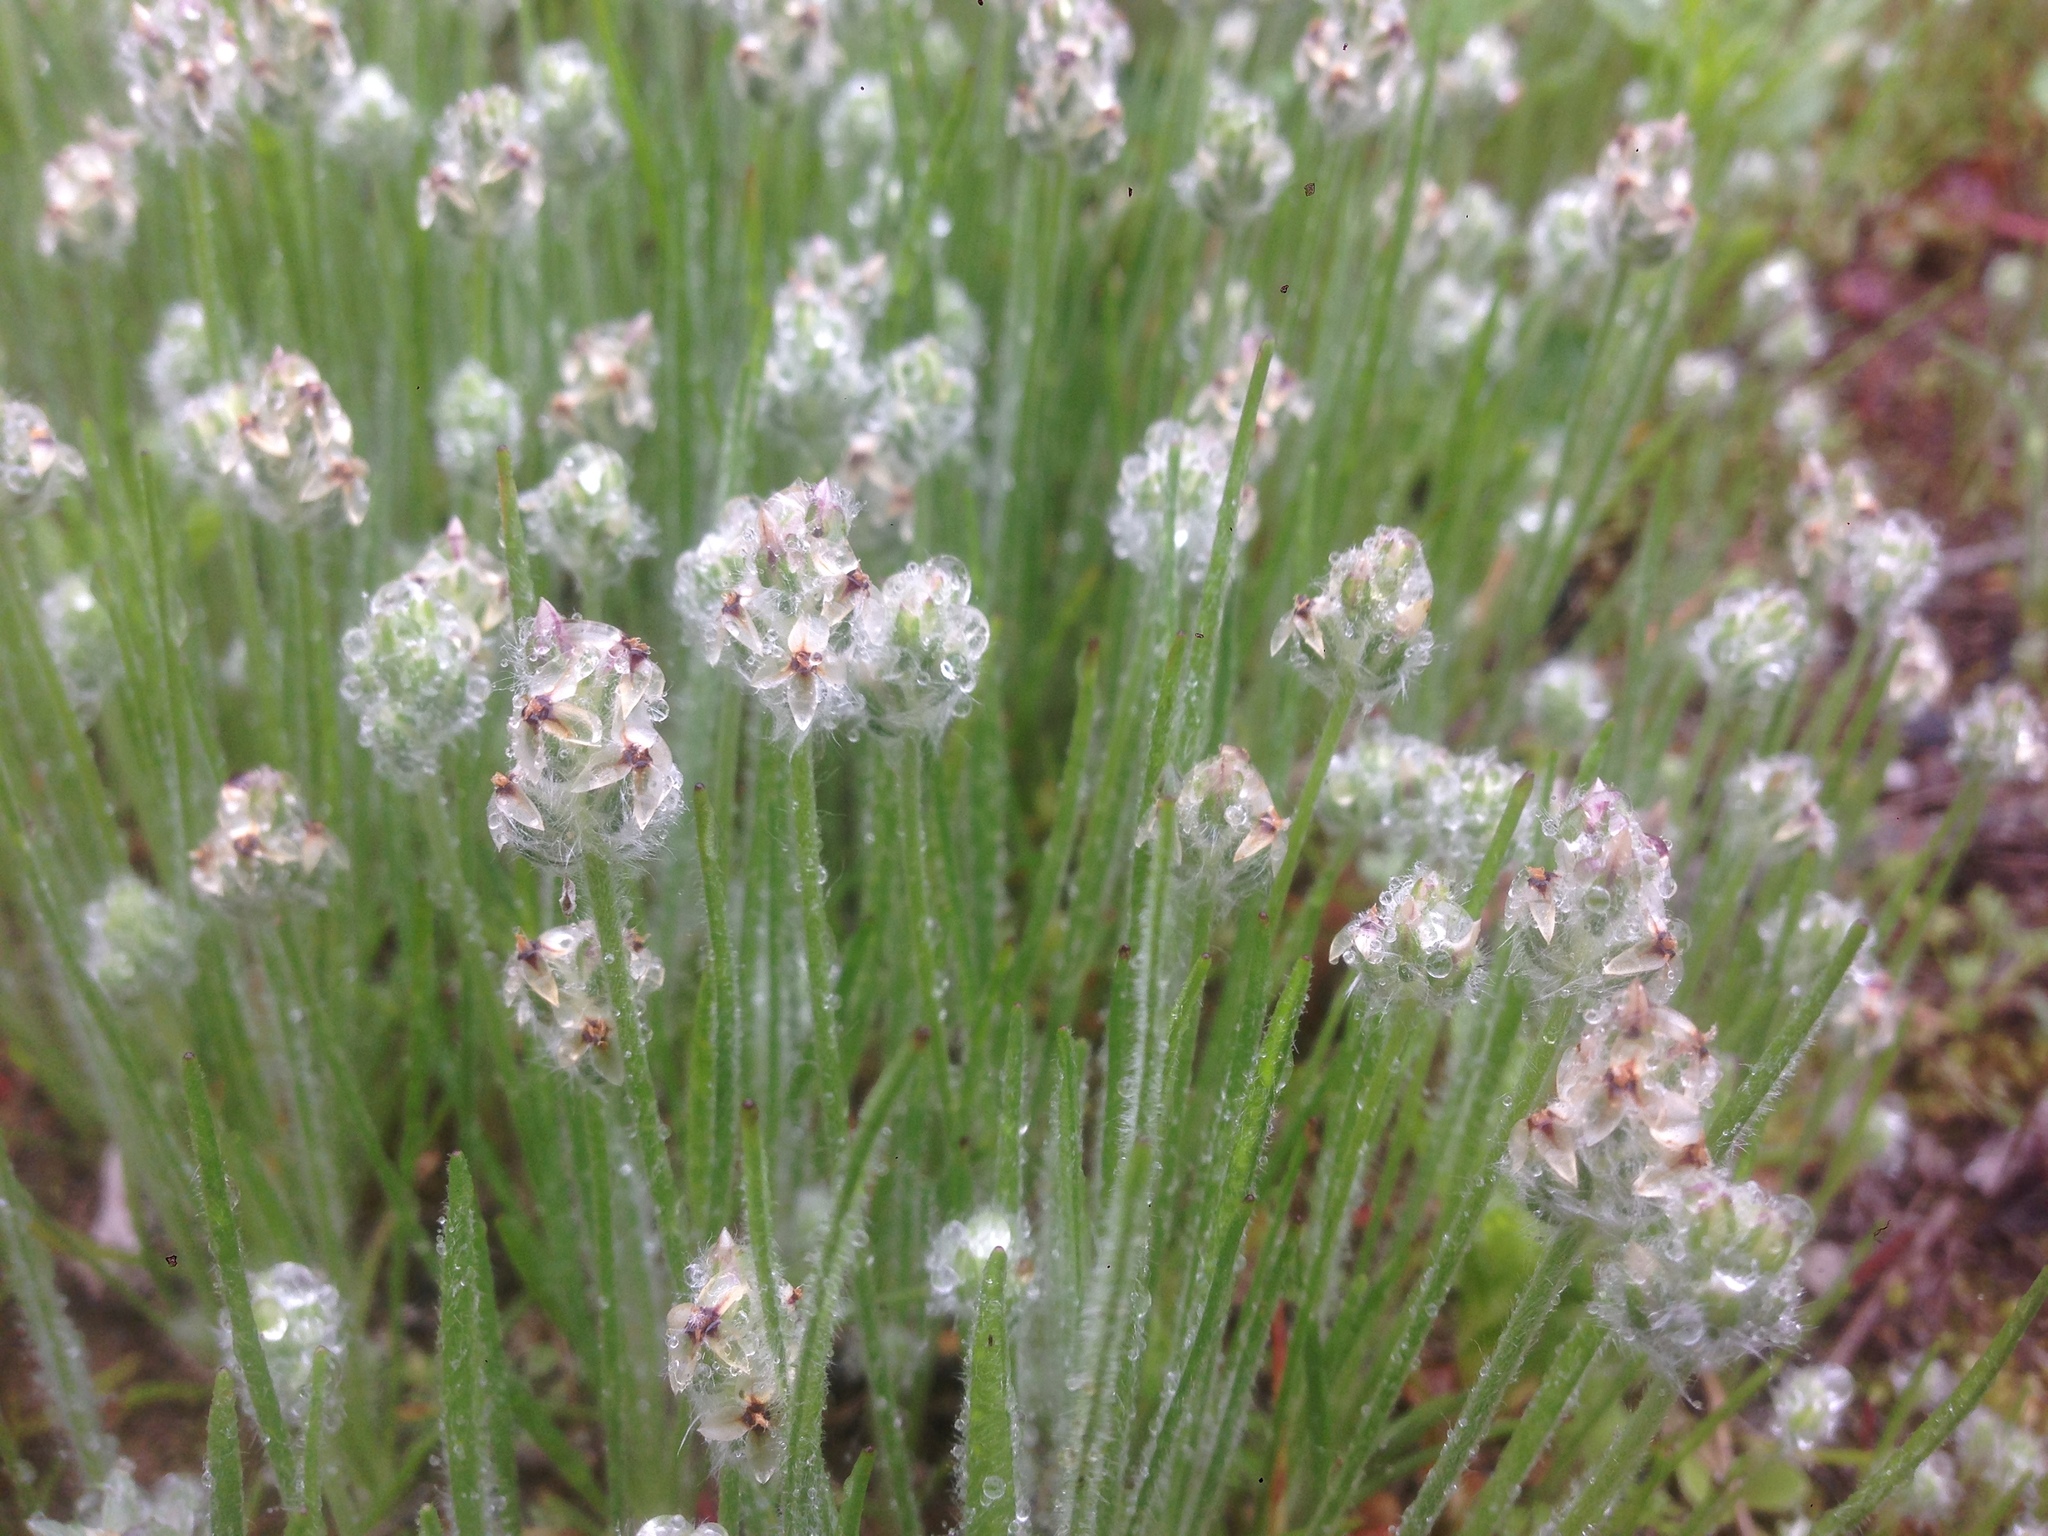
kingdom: Plantae
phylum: Tracheophyta
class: Magnoliopsida
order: Lamiales
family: Plantaginaceae
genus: Plantago
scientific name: Plantago erecta
